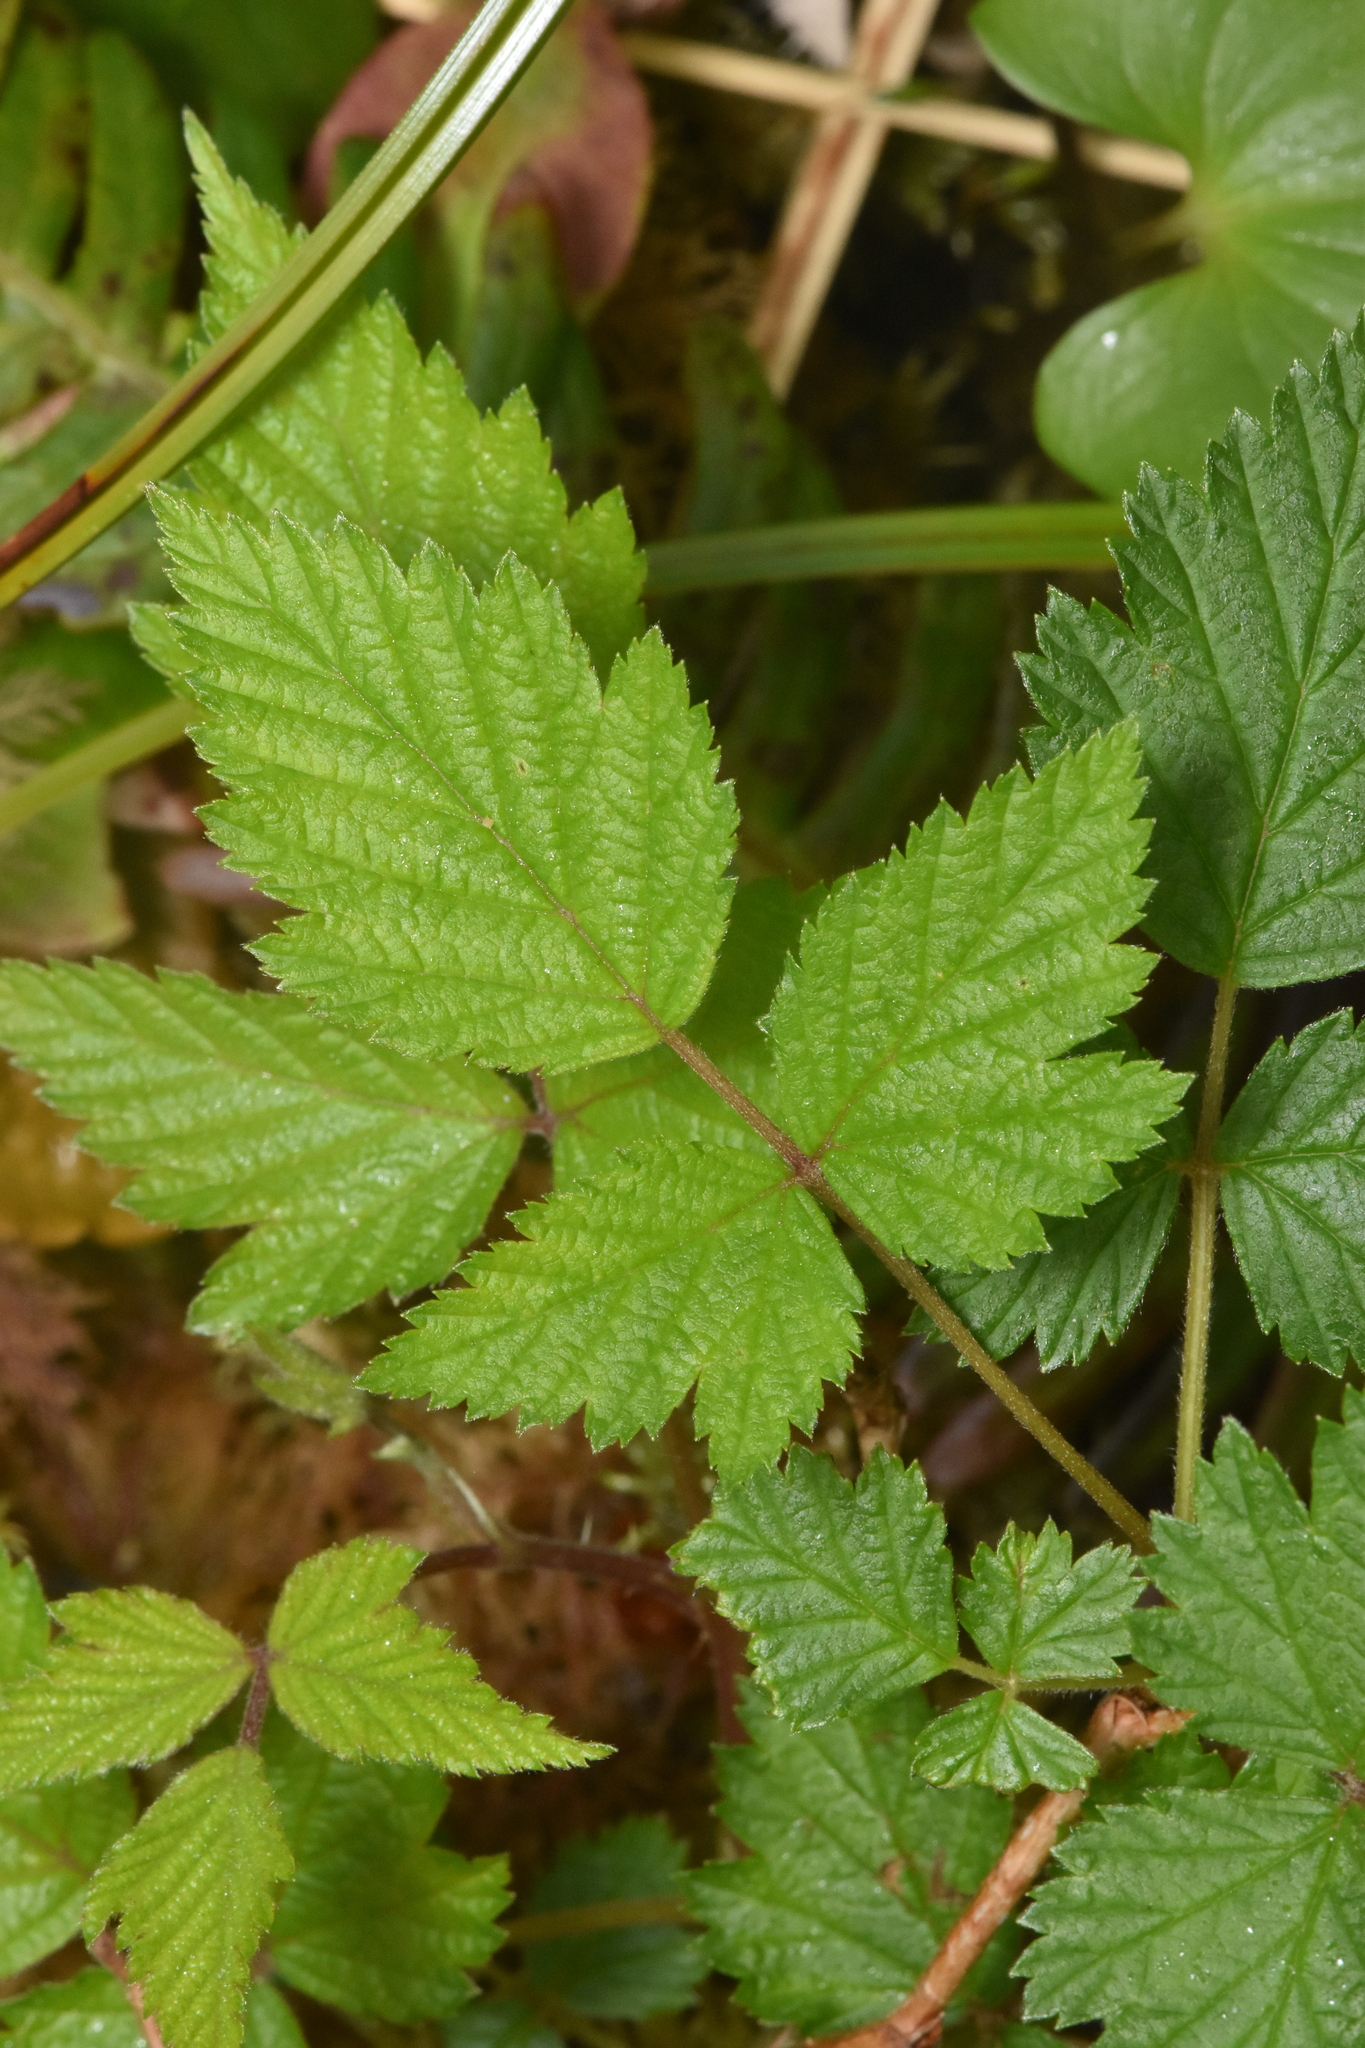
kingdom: Plantae
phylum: Tracheophyta
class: Magnoliopsida
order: Rosales
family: Rosaceae
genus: Rubus
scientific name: Rubus spectabilis
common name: Salmonberry
